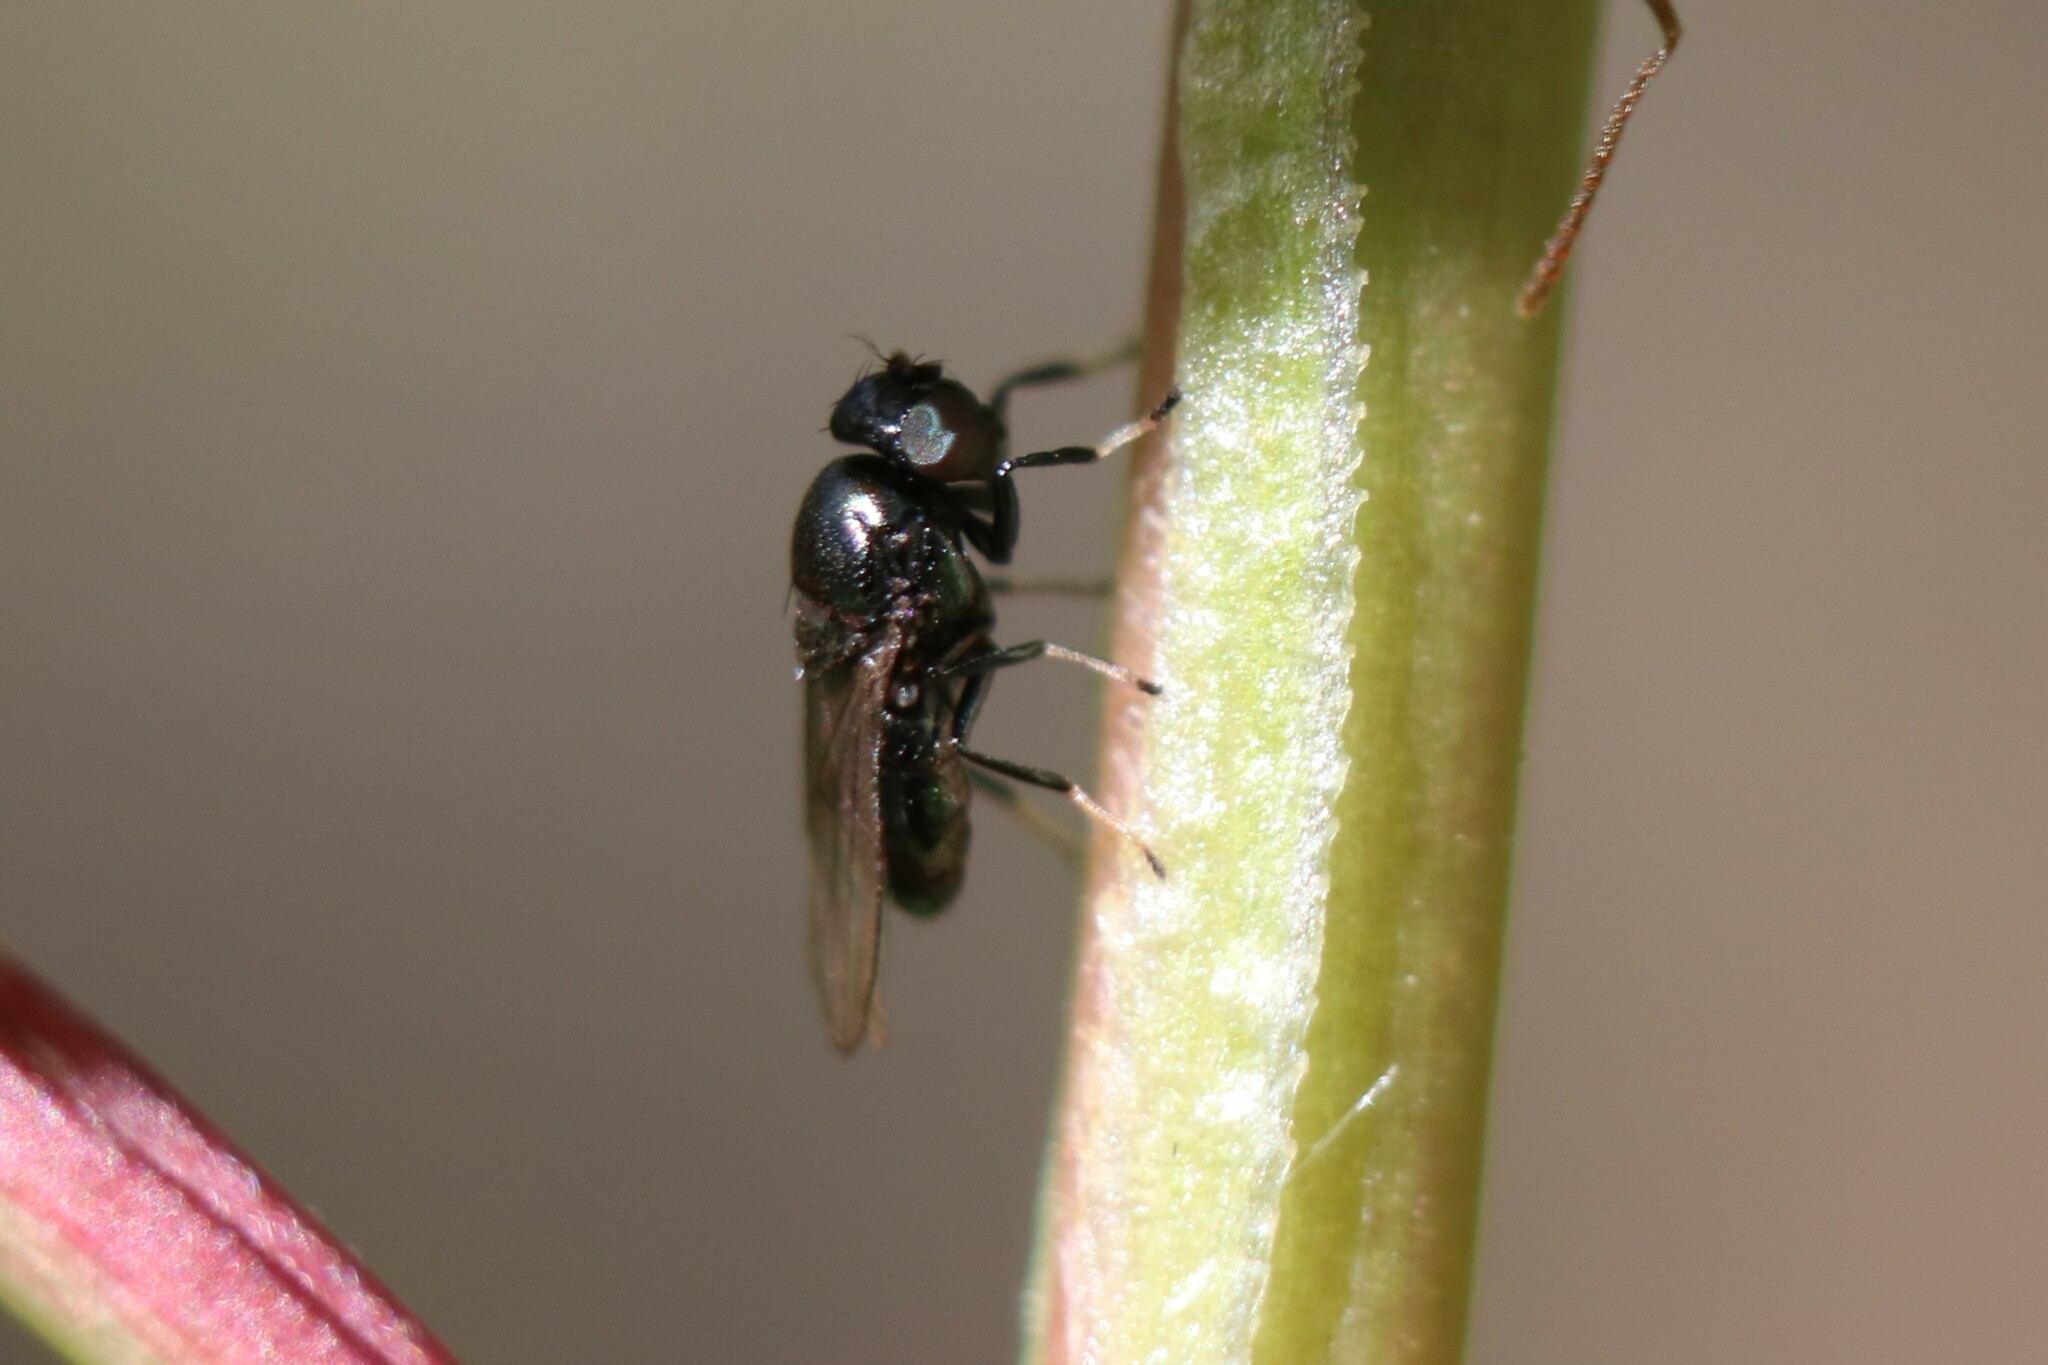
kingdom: Animalia
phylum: Arthropoda
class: Insecta
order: Diptera
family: Ephydridae
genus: Athyroglossa
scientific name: Athyroglossa ordinata
